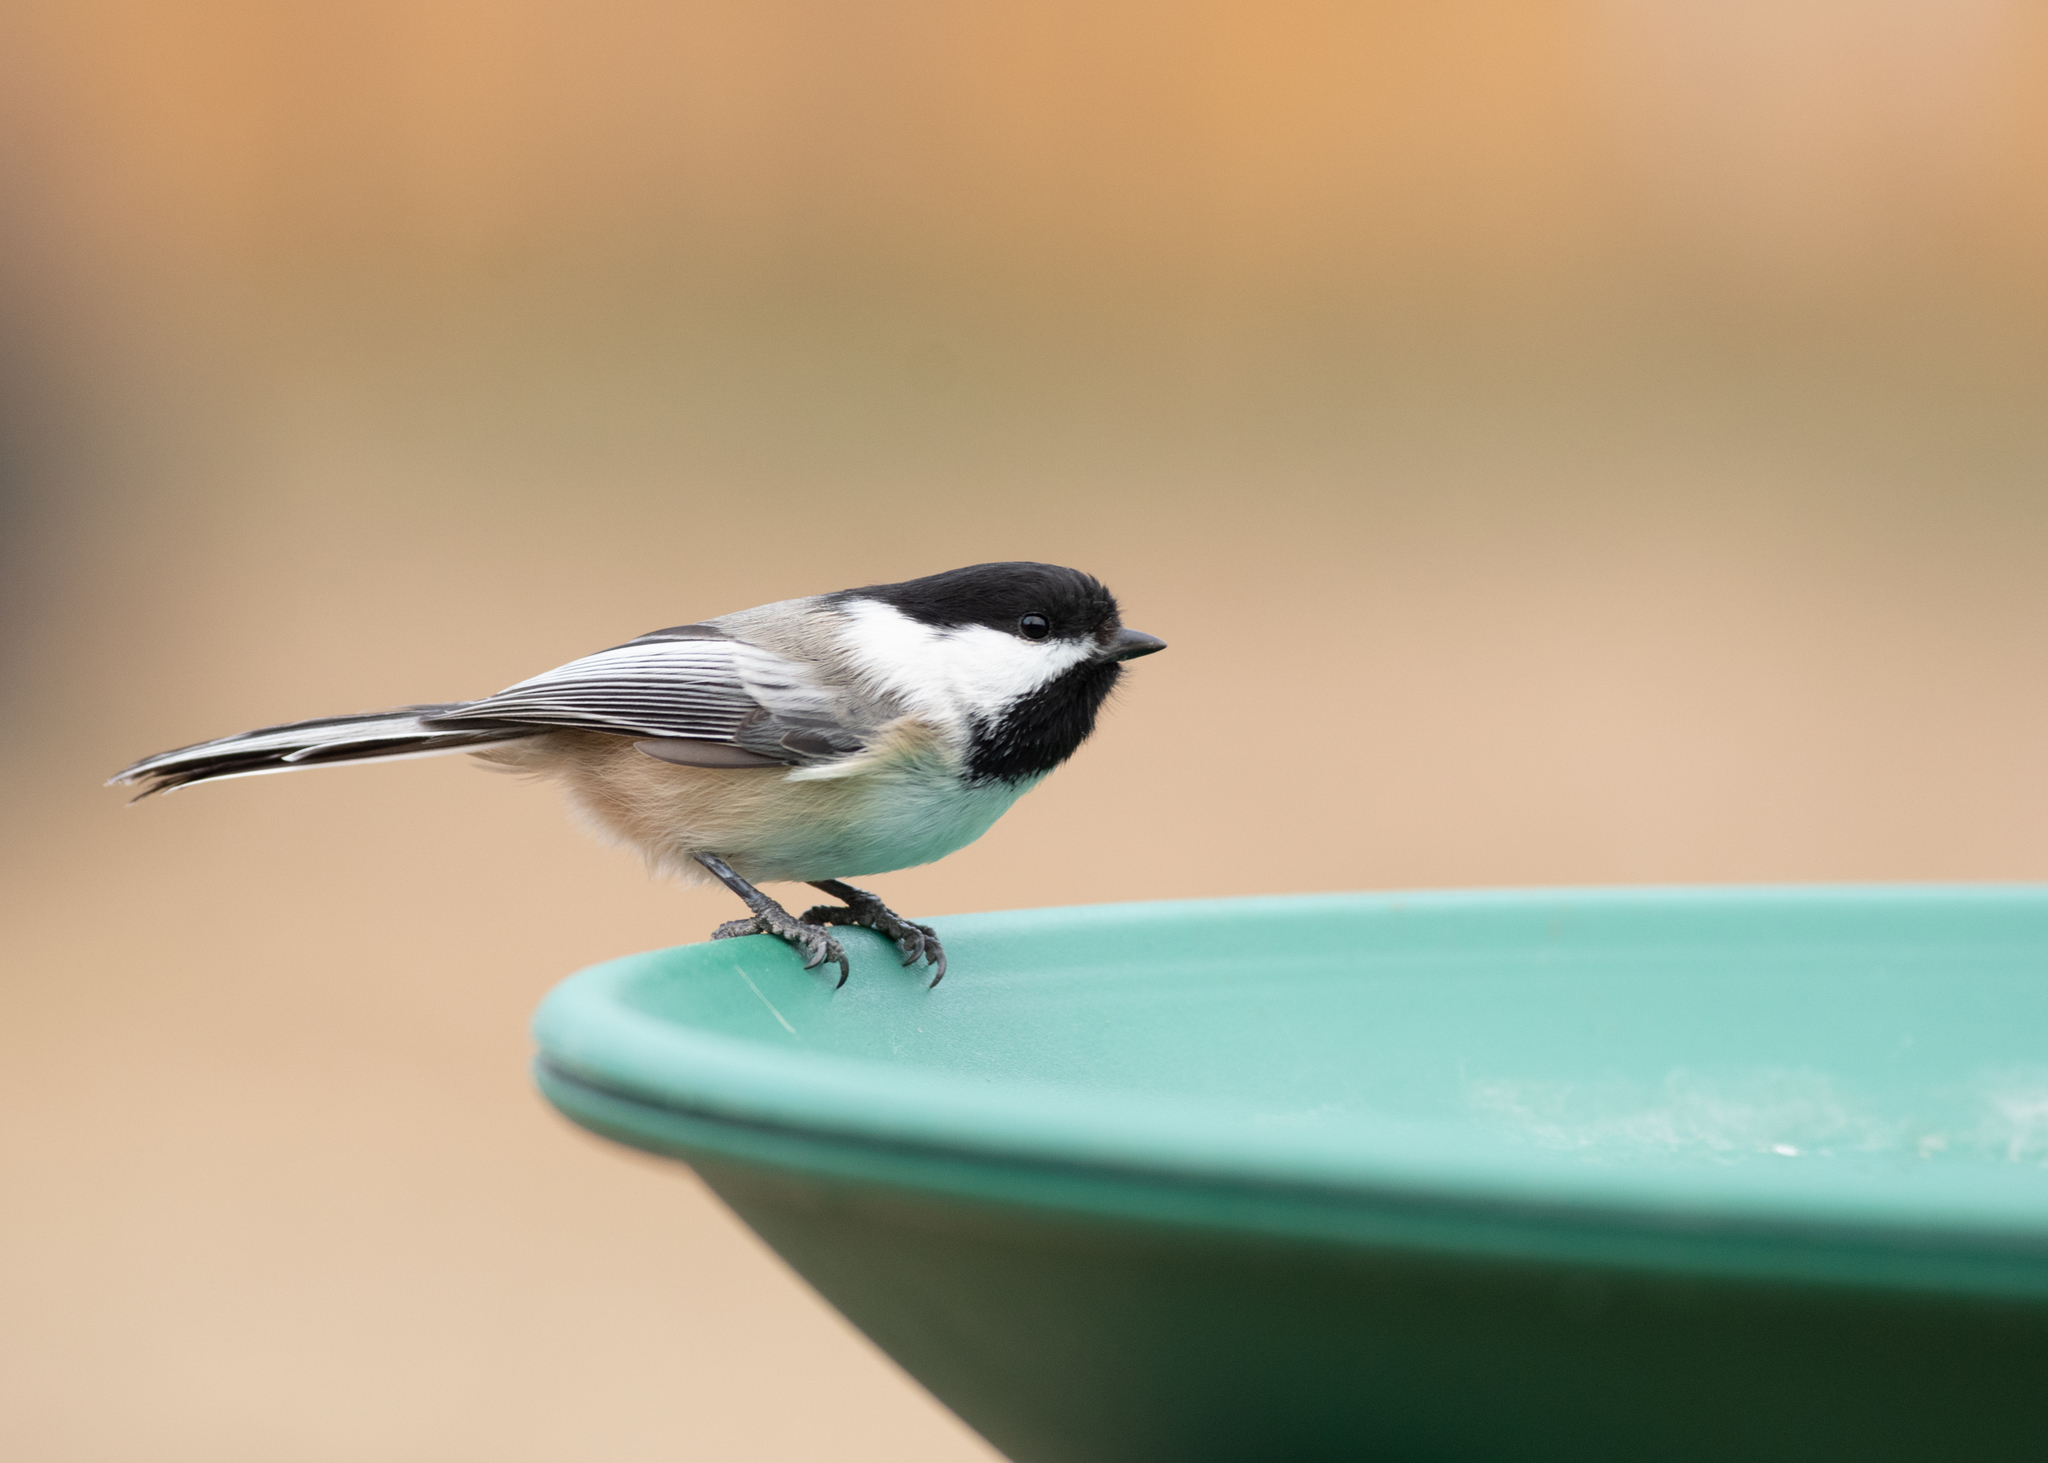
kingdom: Animalia
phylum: Chordata
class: Aves
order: Passeriformes
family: Paridae
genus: Poecile
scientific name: Poecile atricapillus
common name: Black-capped chickadee
